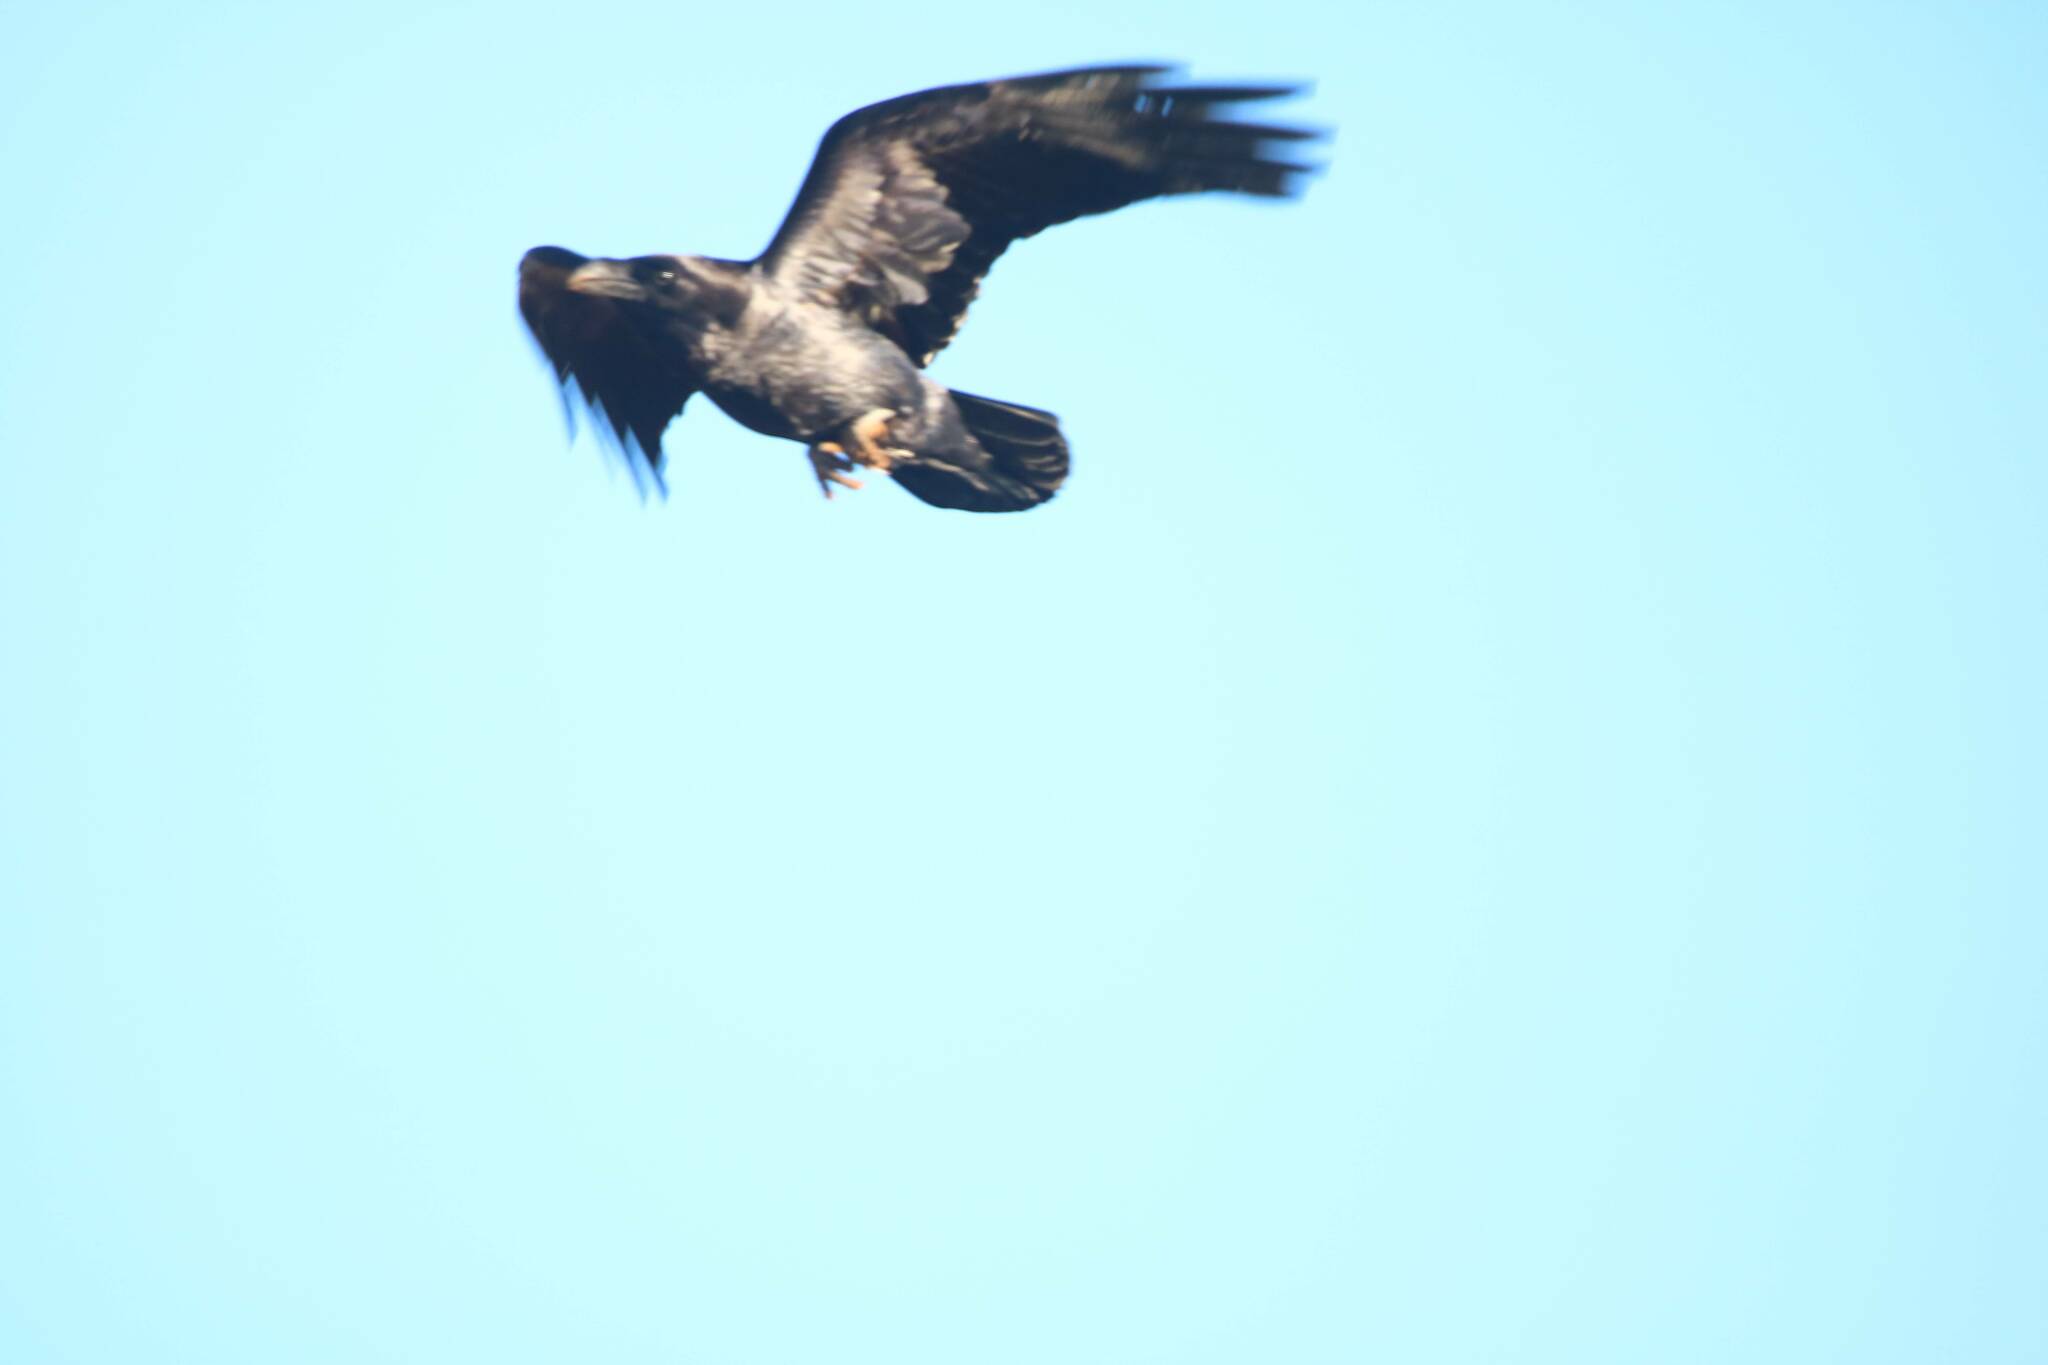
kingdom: Animalia
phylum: Chordata
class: Aves
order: Passeriformes
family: Corvidae
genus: Corvus
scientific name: Corvus corax
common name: Common raven
